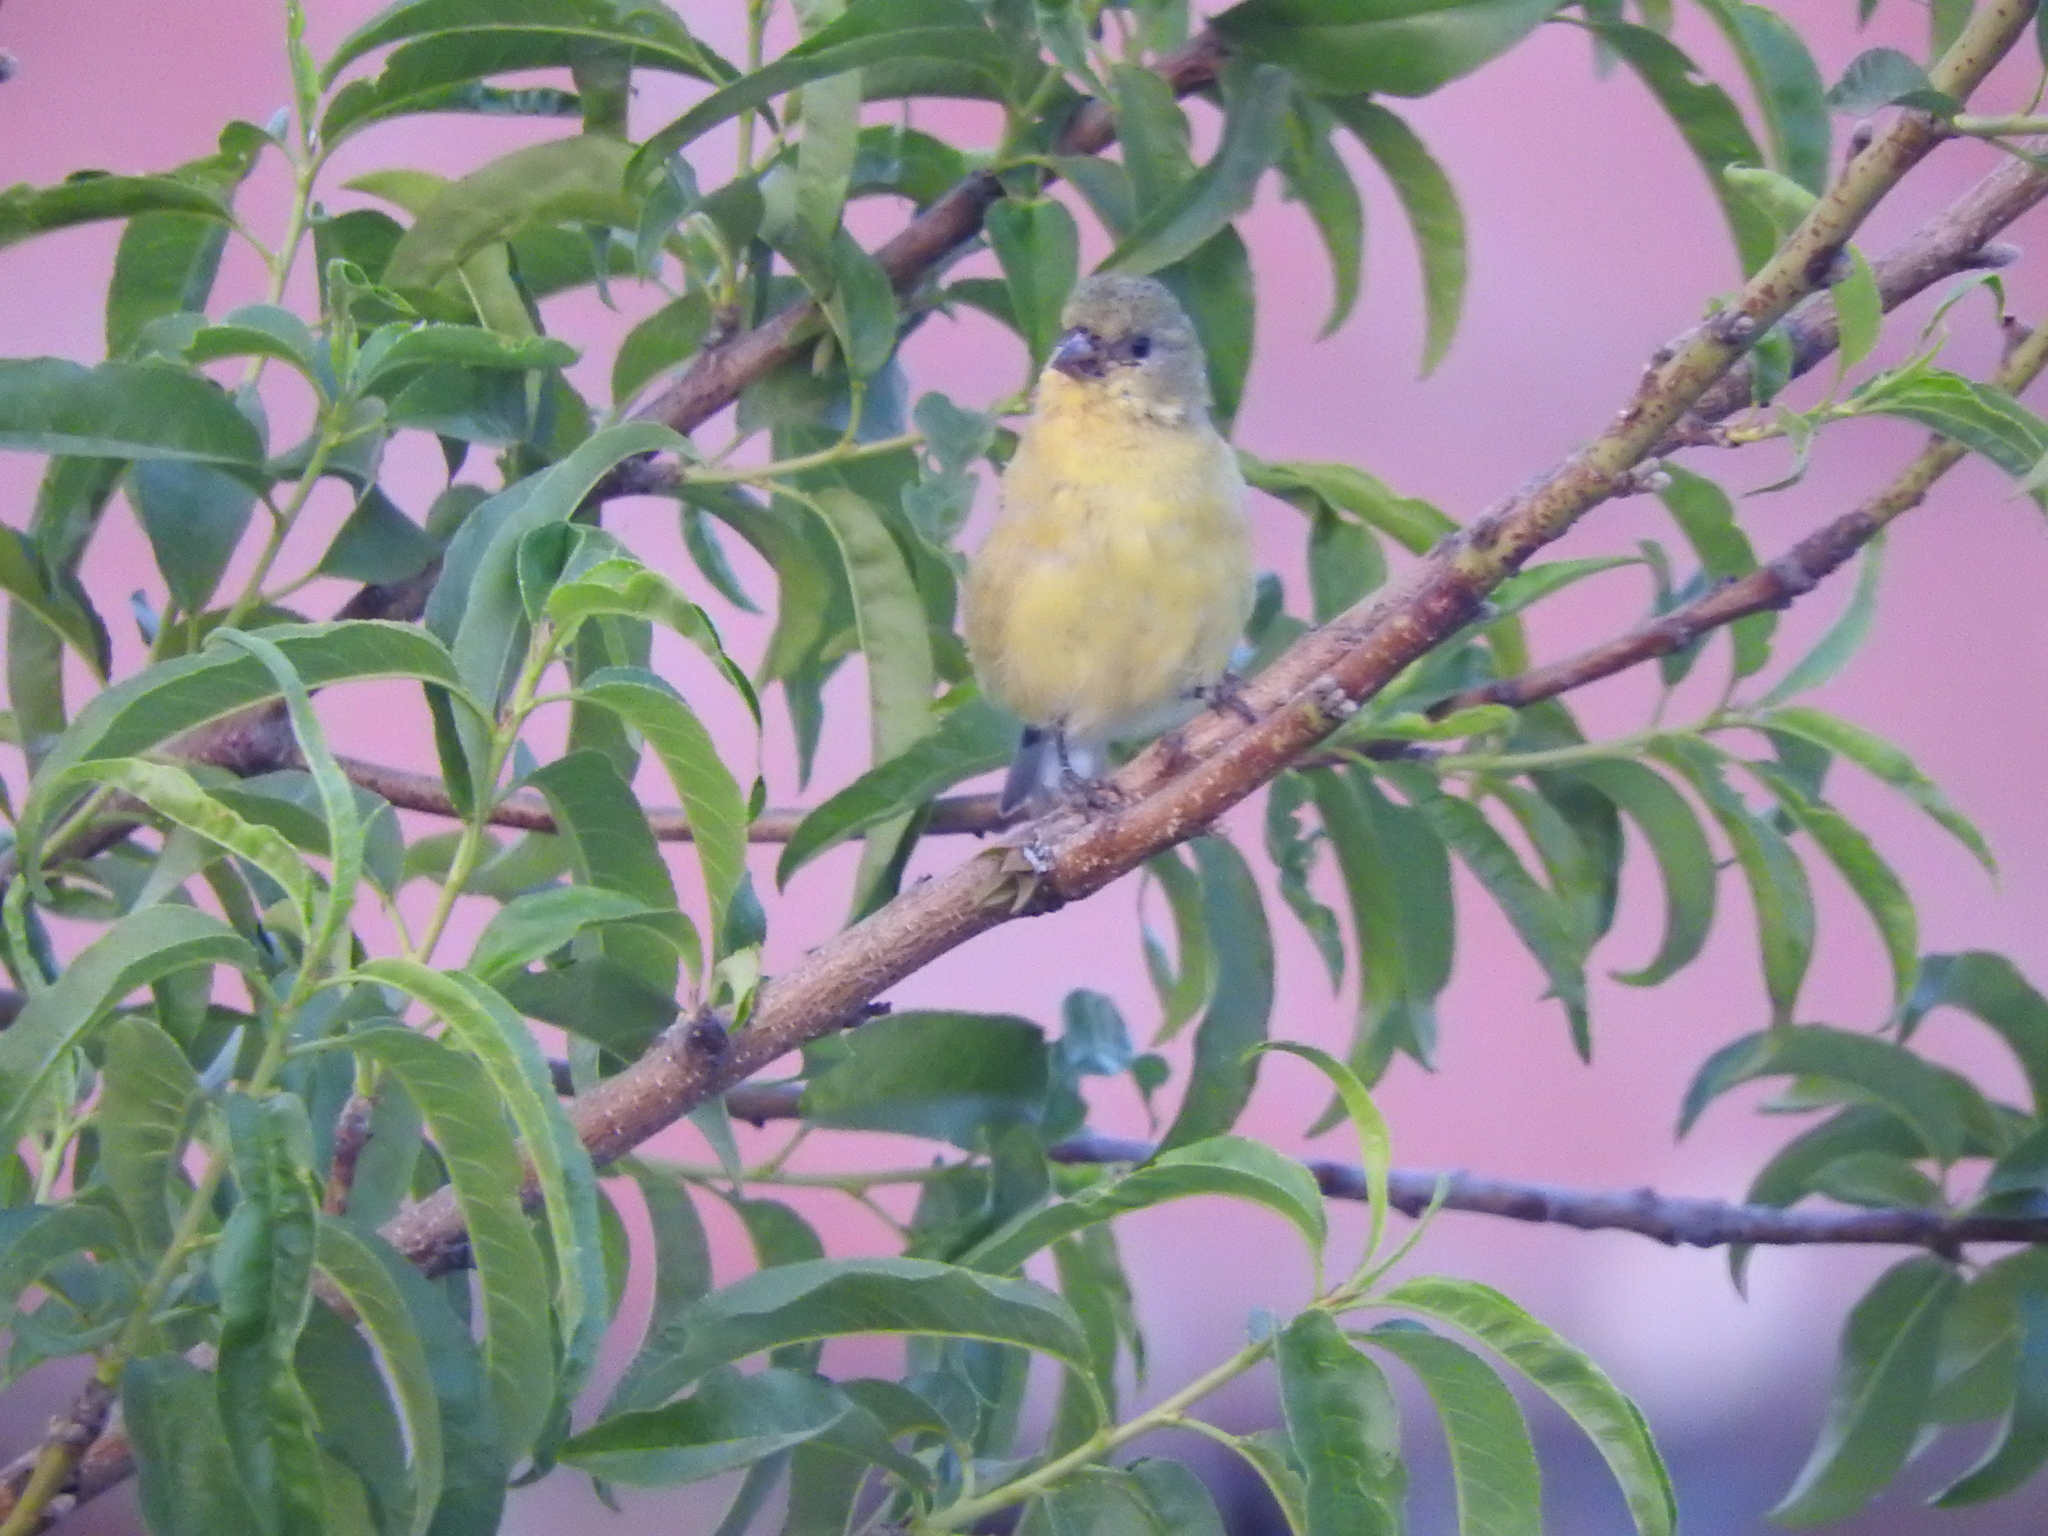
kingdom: Animalia
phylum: Chordata
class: Aves
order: Passeriformes
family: Fringillidae
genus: Spinus
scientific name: Spinus psaltria
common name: Lesser goldfinch
